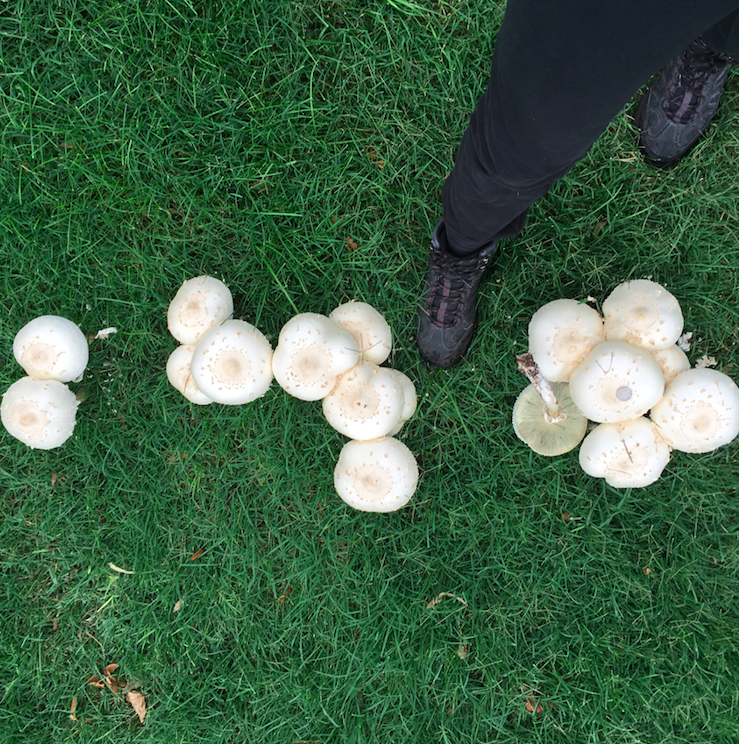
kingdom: Fungi
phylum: Basidiomycota
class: Agaricomycetes
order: Agaricales
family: Agaricaceae
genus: Chlorophyllum
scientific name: Chlorophyllum molybdites
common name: False parasol
